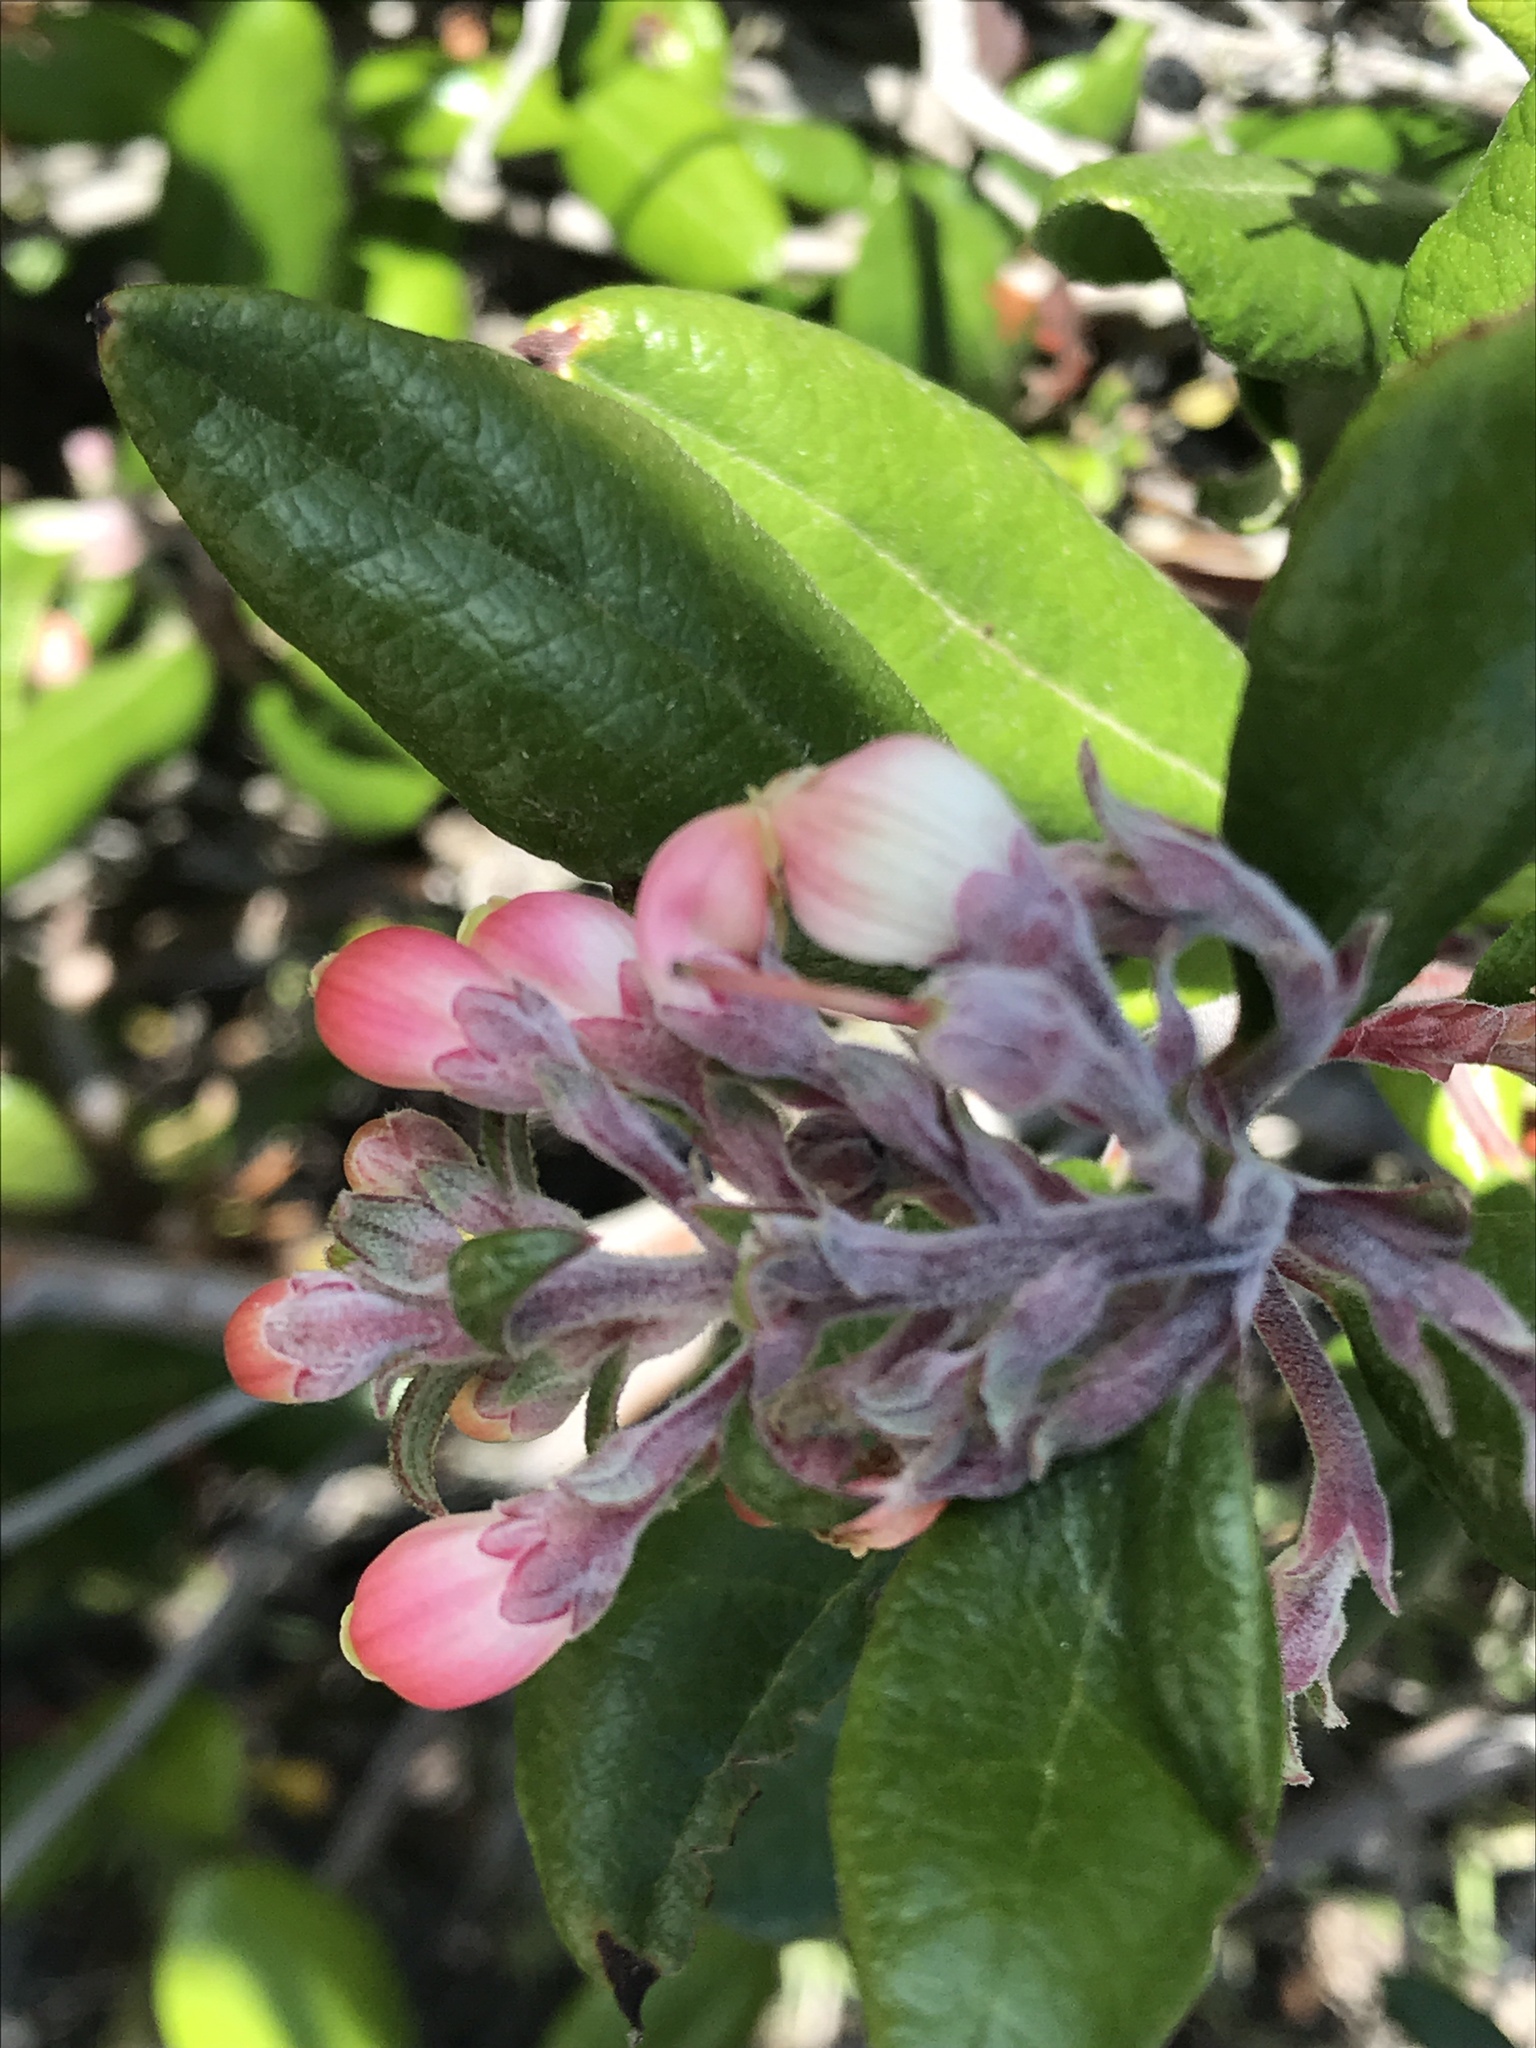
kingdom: Plantae
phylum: Tracheophyta
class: Magnoliopsida
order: Ericales
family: Ericaceae
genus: Arctostaphylos
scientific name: Arctostaphylos bicolor
